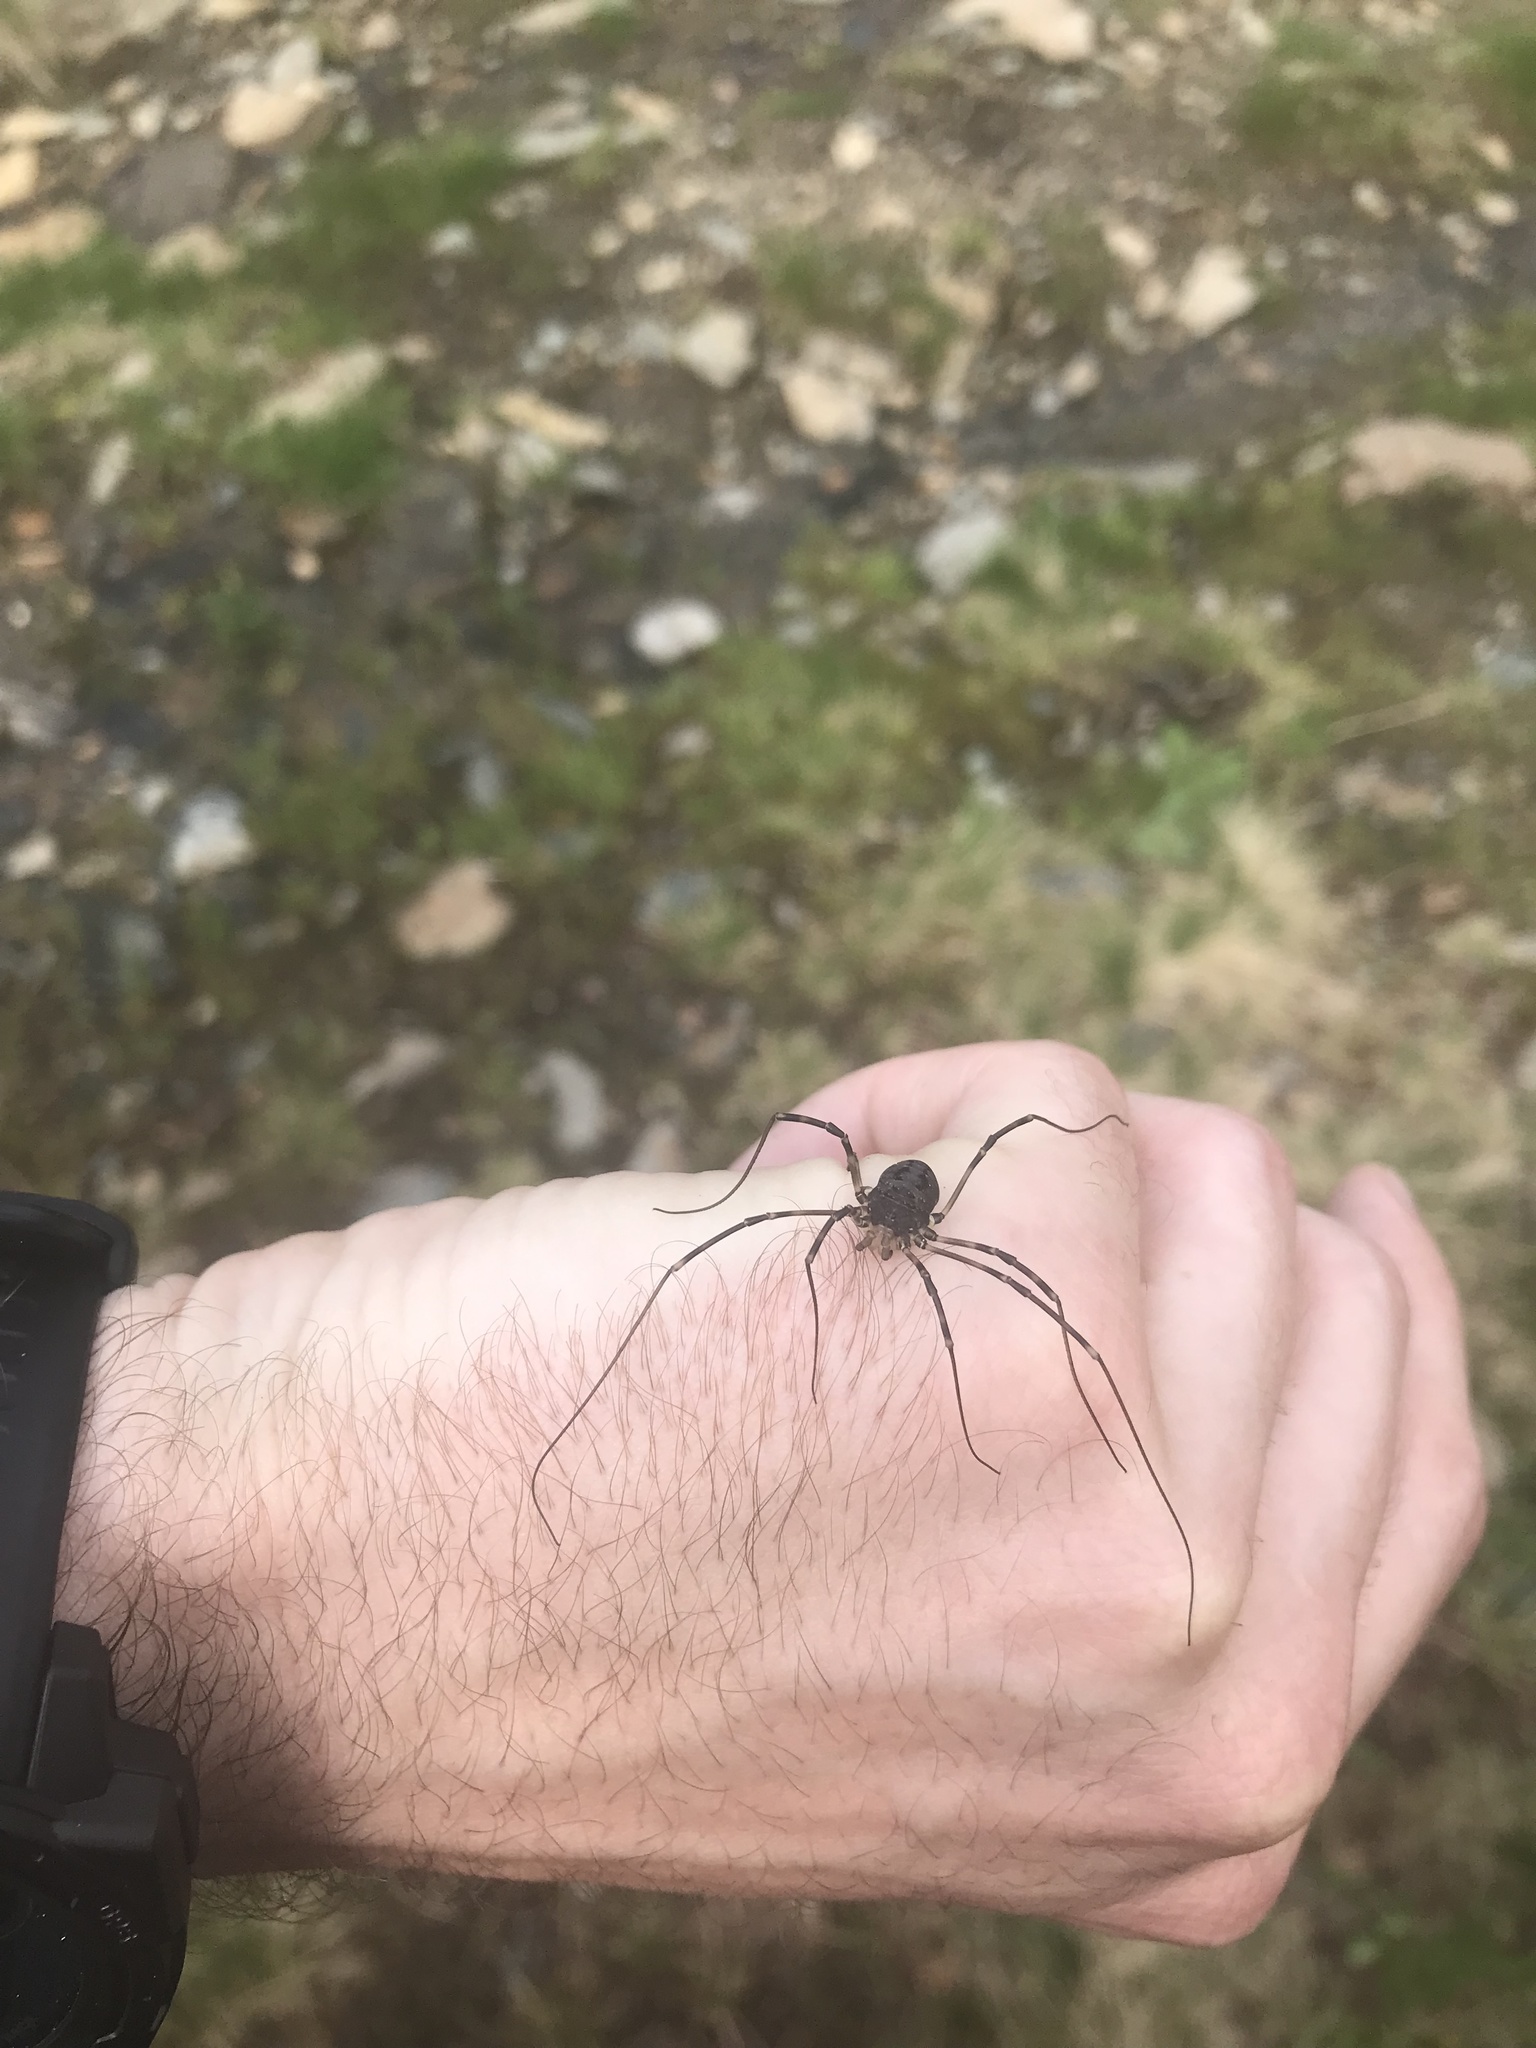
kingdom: Animalia
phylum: Arthropoda
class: Arachnida
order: Opiliones
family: Sclerosomatidae
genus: Gyas
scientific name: Gyas titanus
